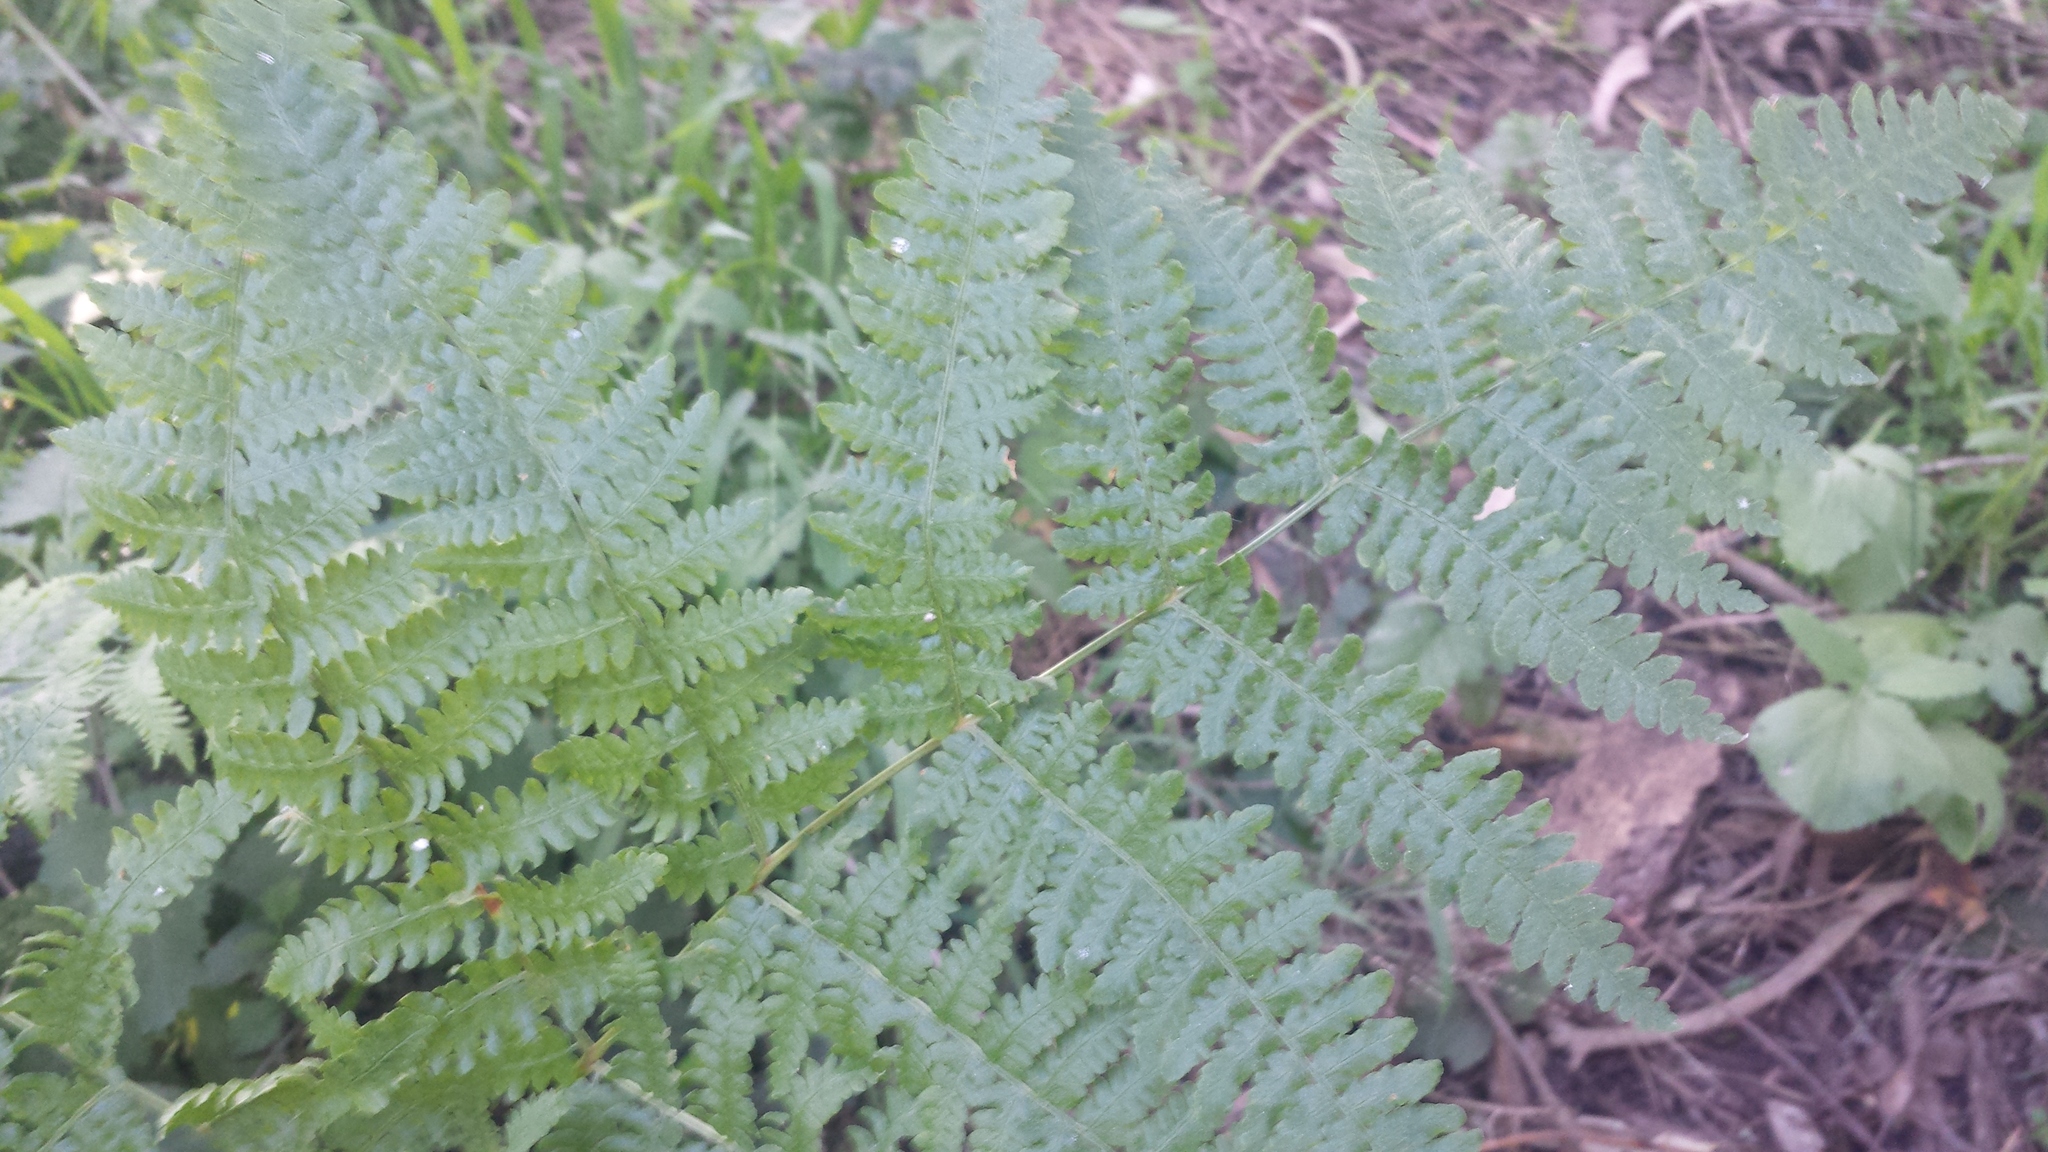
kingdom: Plantae
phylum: Tracheophyta
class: Polypodiopsida
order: Polypodiales
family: Dennstaedtiaceae
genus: Pteridium
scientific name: Pteridium aquilinum
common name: Bracken
